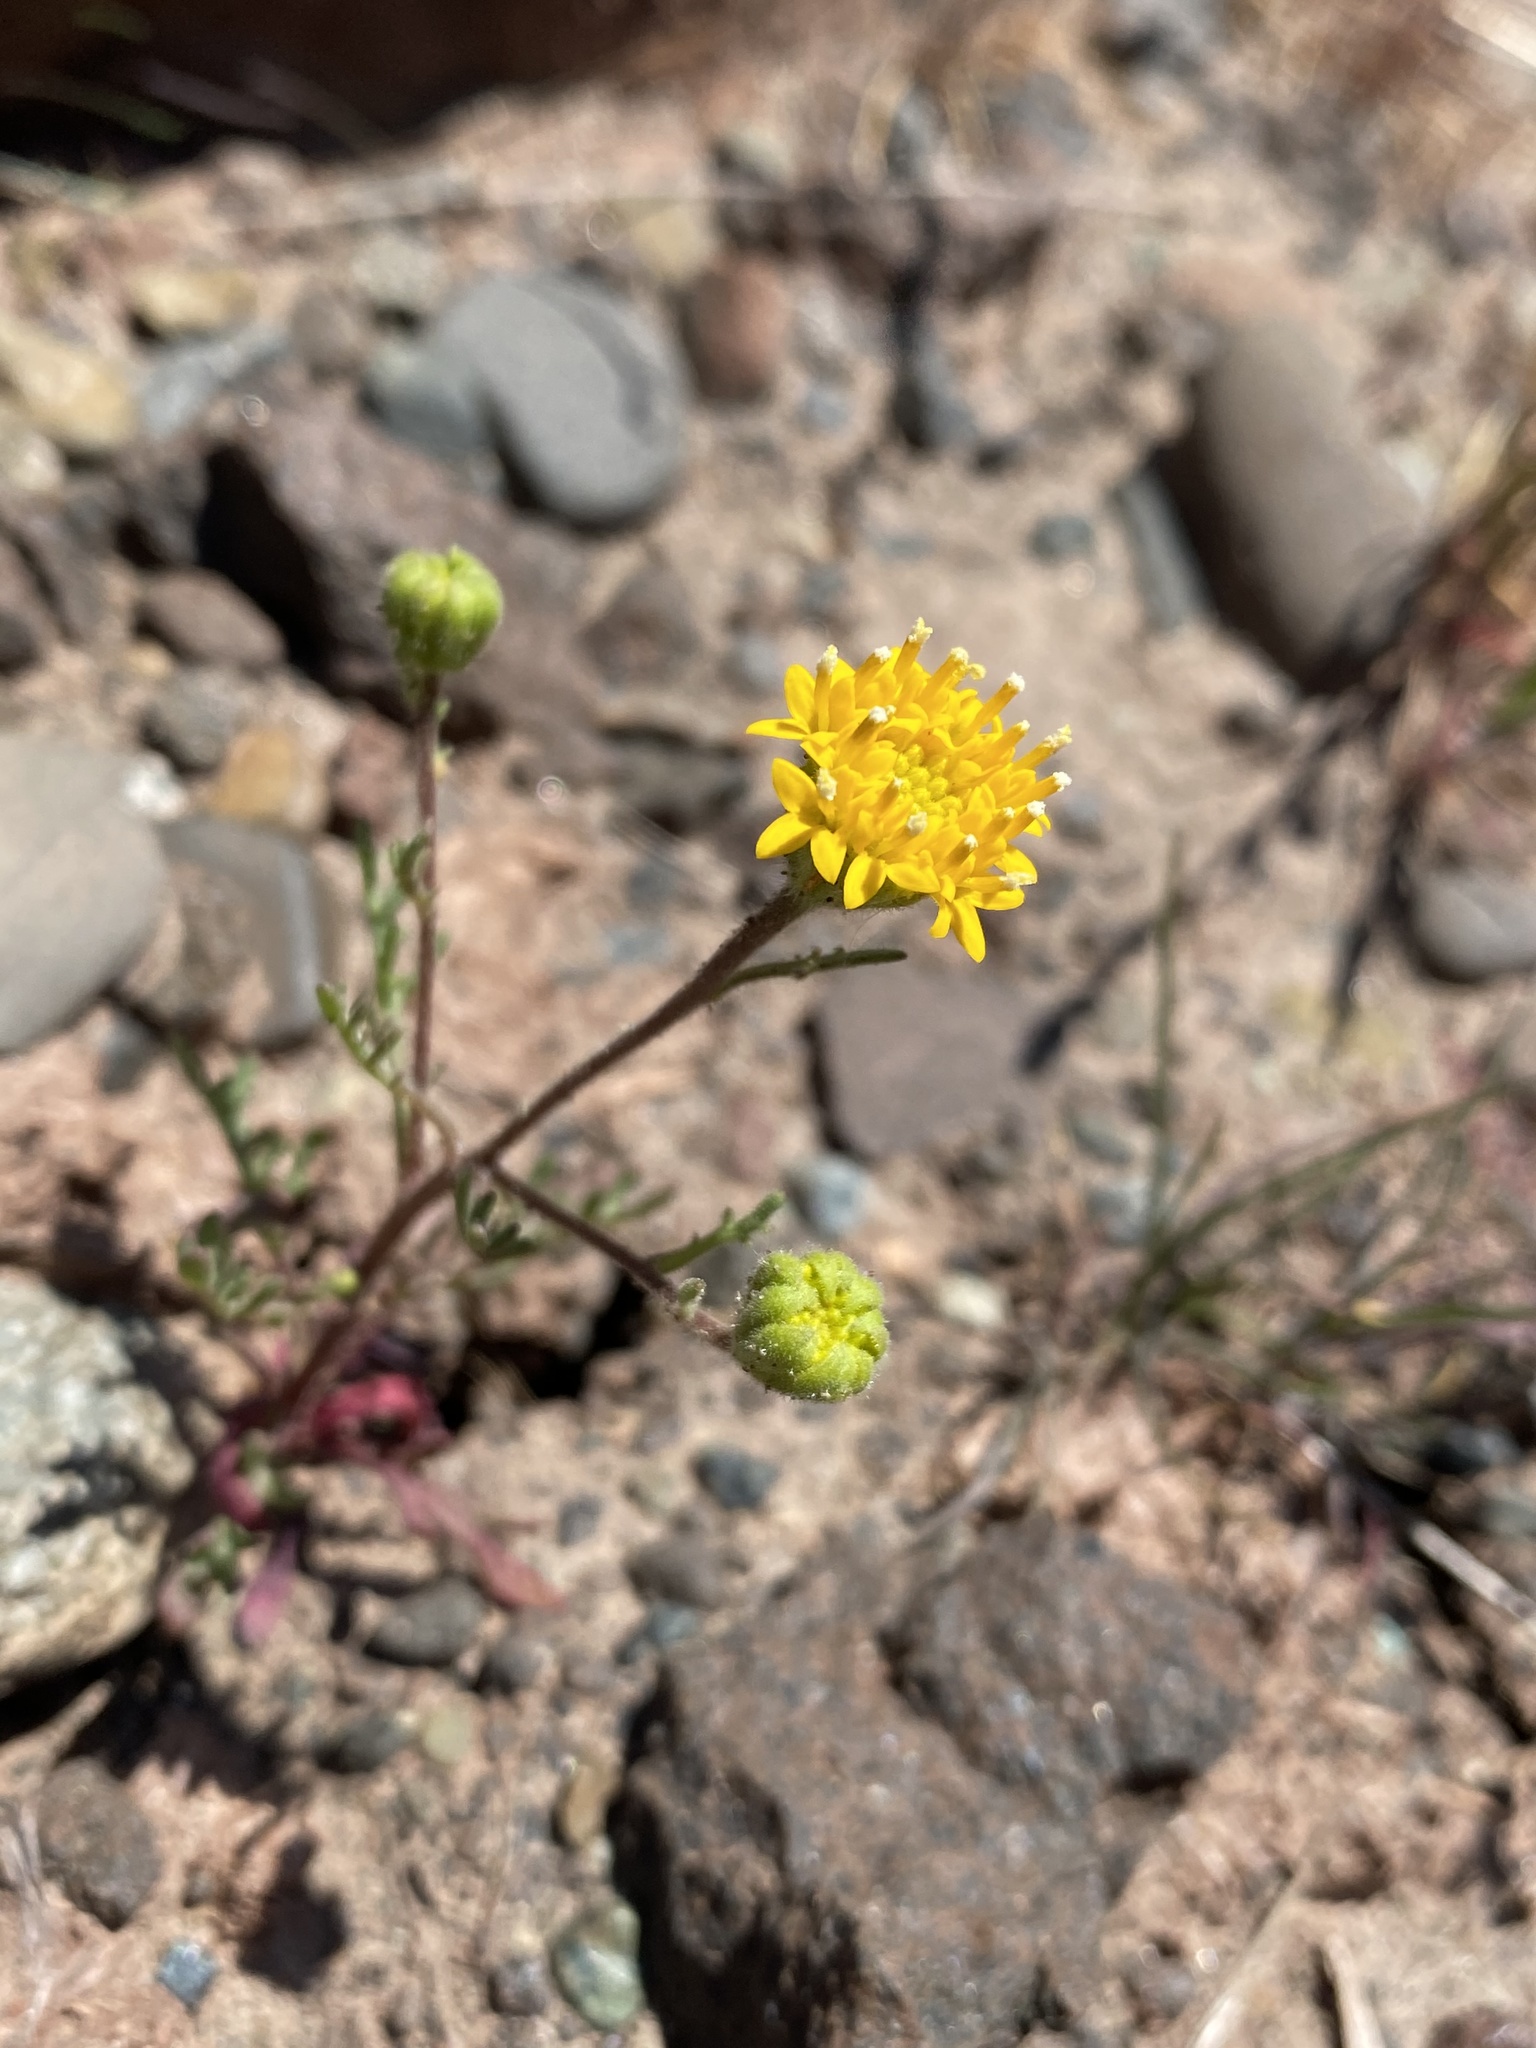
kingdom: Plantae
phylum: Tracheophyta
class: Magnoliopsida
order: Asterales
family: Asteraceae
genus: Chaenactis
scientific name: Chaenactis nevii
